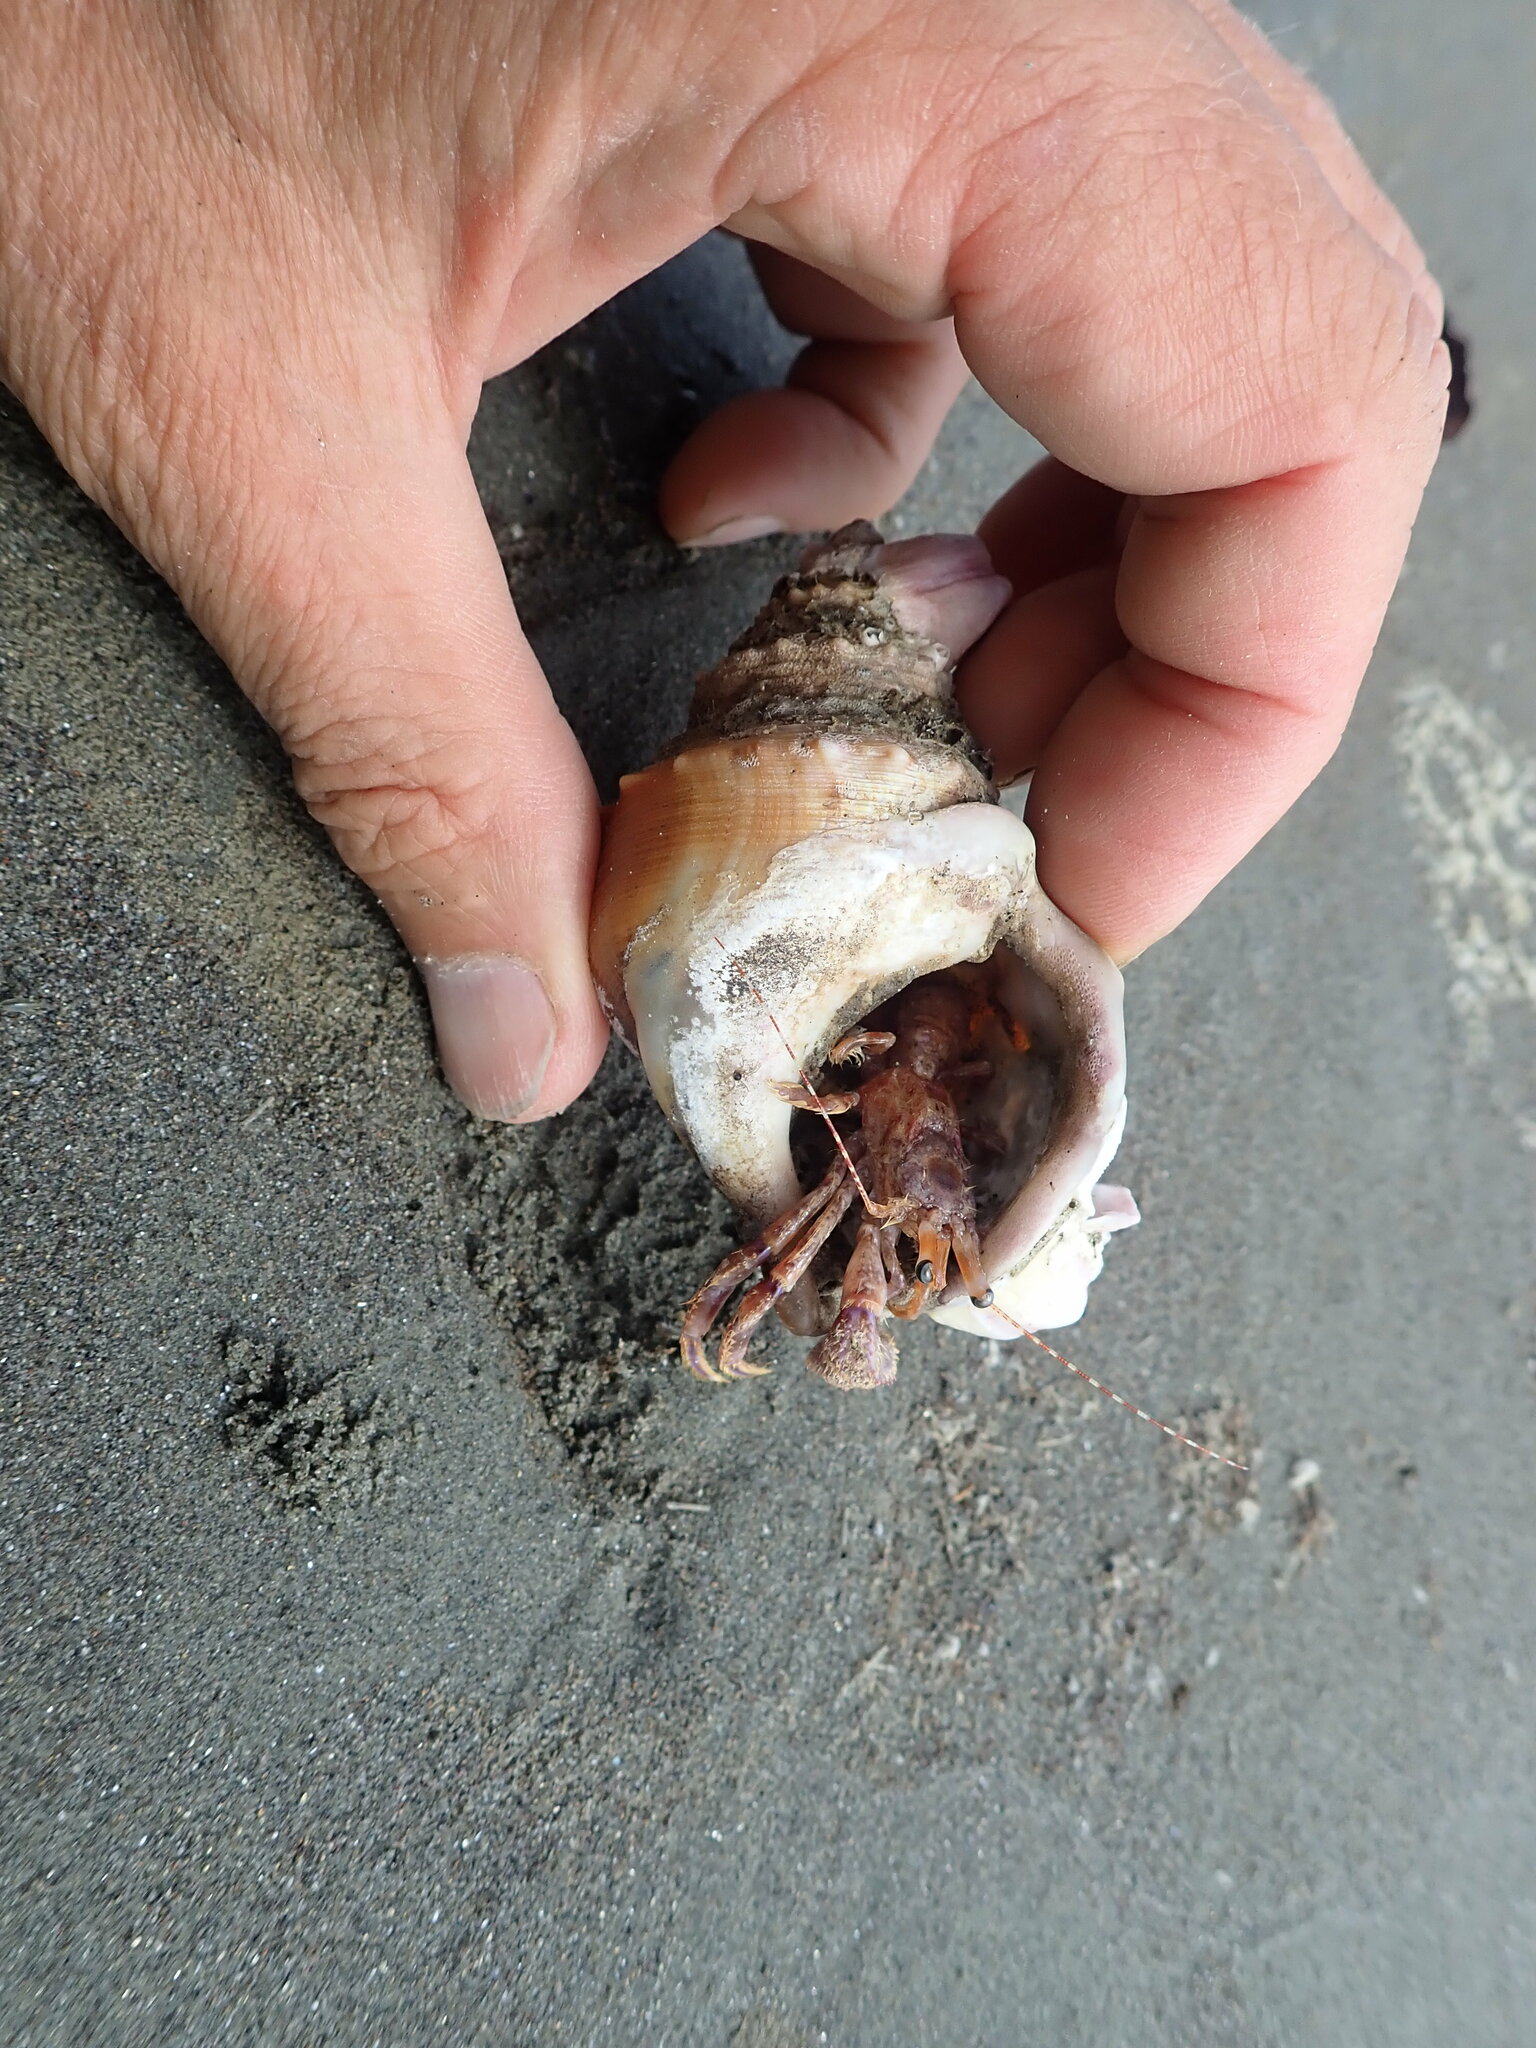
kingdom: Animalia
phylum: Arthropoda
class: Malacostraca
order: Decapoda
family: Paguridae
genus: Diacanthurus
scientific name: Diacanthurus spinulimanus
